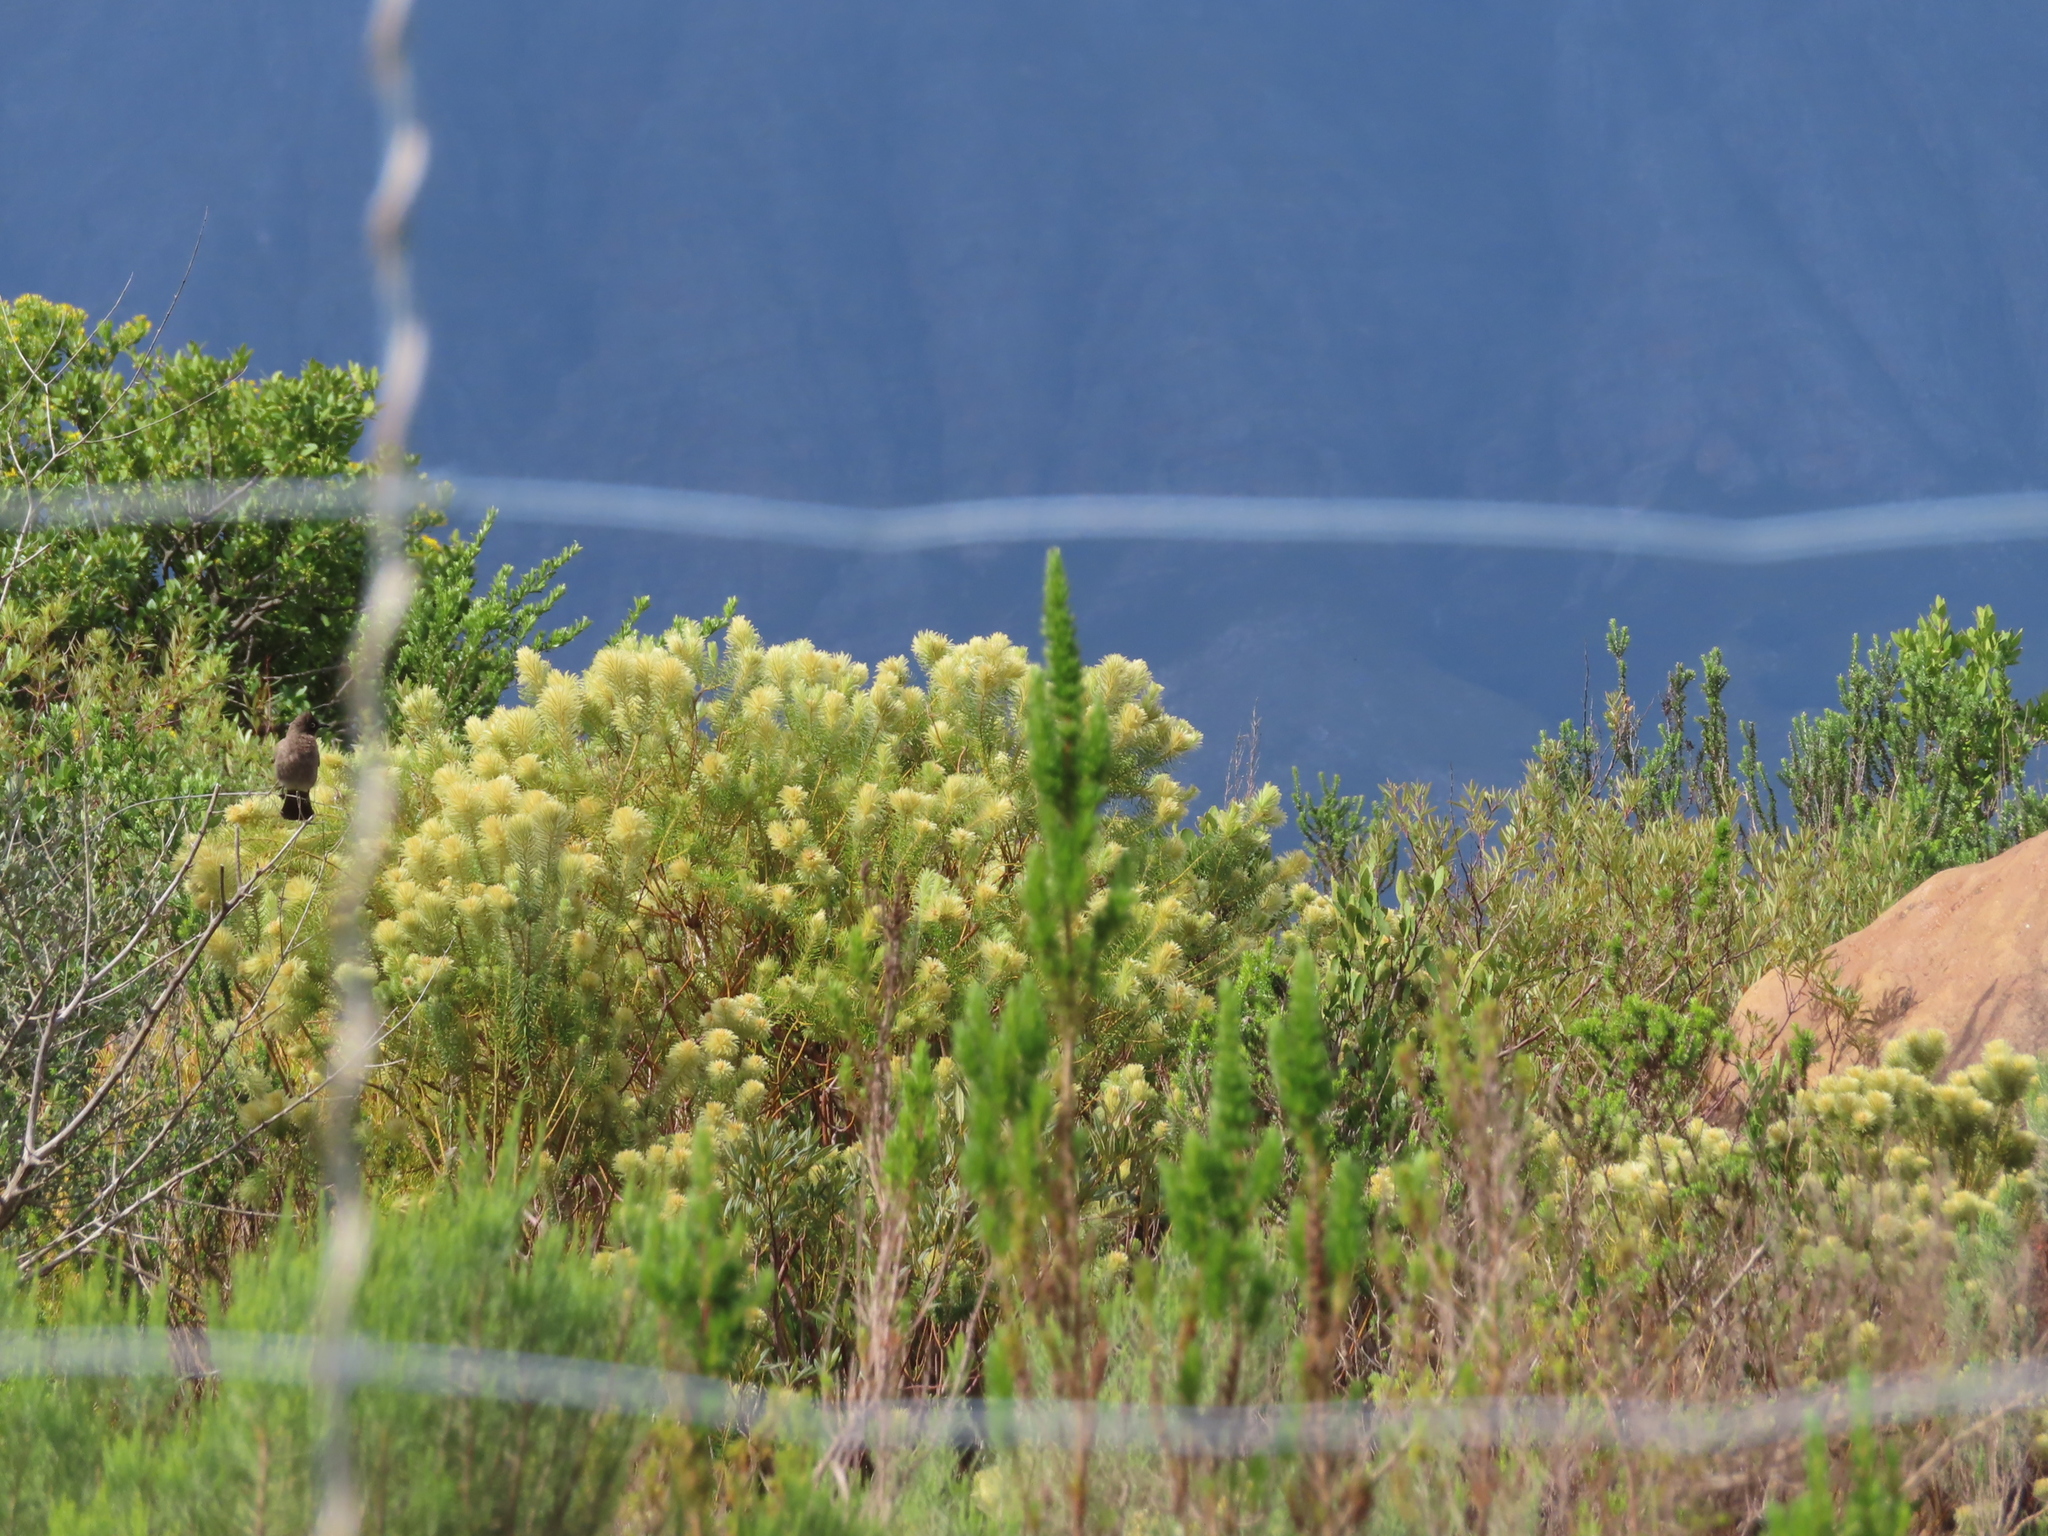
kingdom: Plantae
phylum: Tracheophyta
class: Magnoliopsida
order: Rosales
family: Rhamnaceae
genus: Phylica
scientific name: Phylica pubescens
